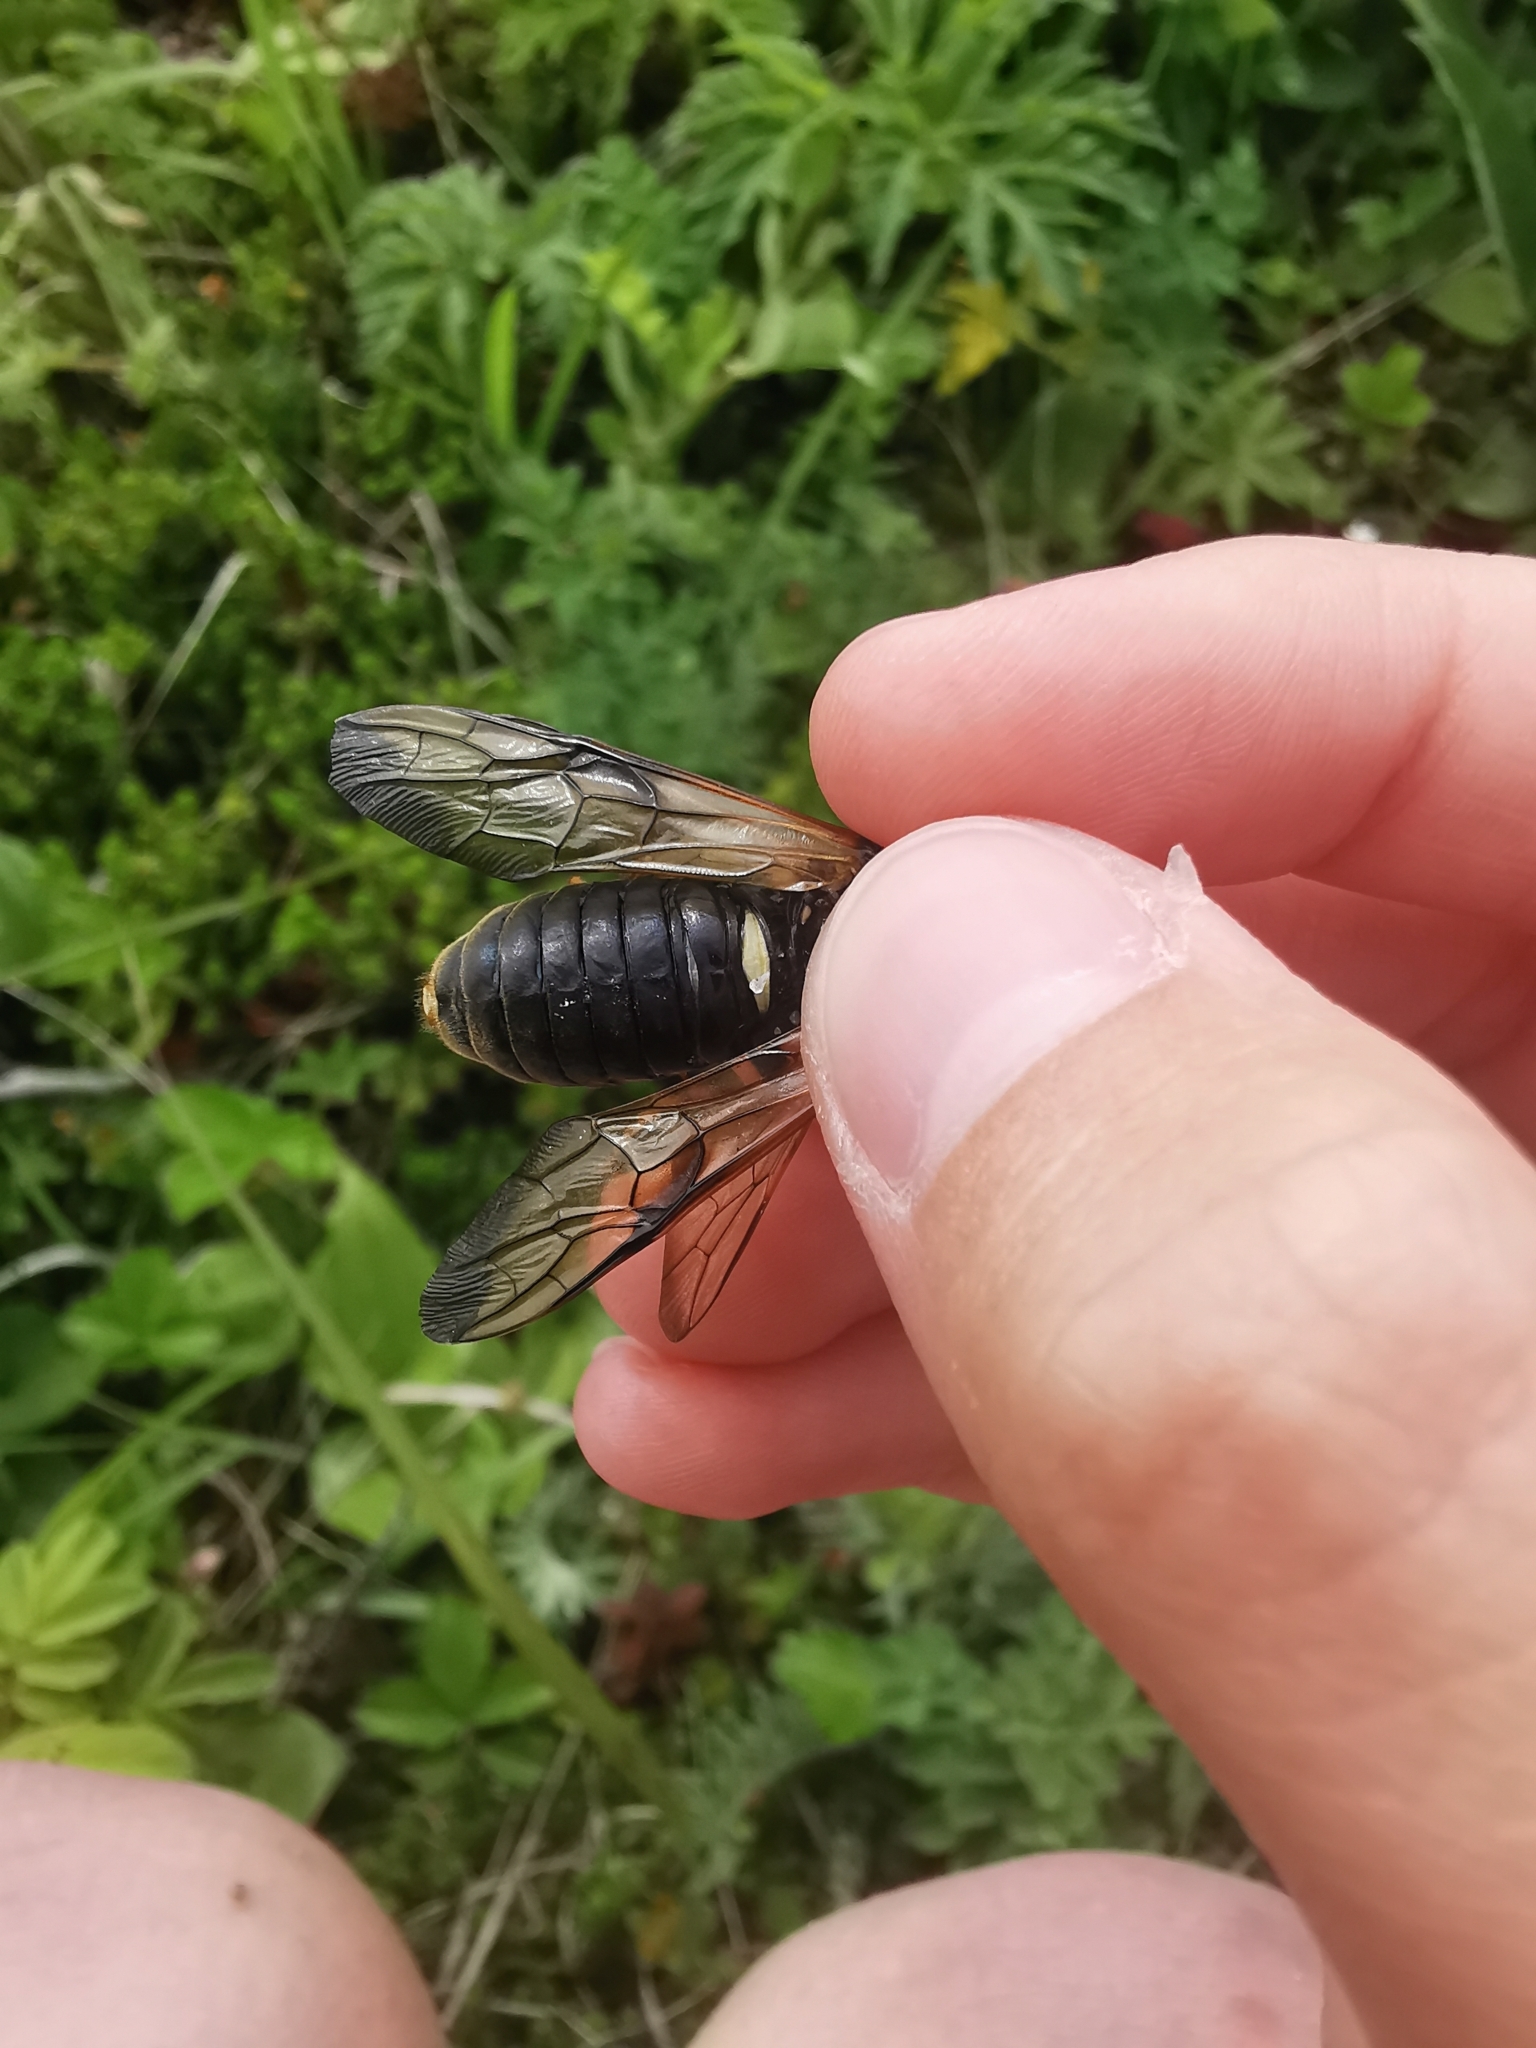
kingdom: Animalia
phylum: Arthropoda
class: Insecta
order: Hymenoptera
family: Cimbicidae
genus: Cimbex
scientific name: Cimbex femoratus
